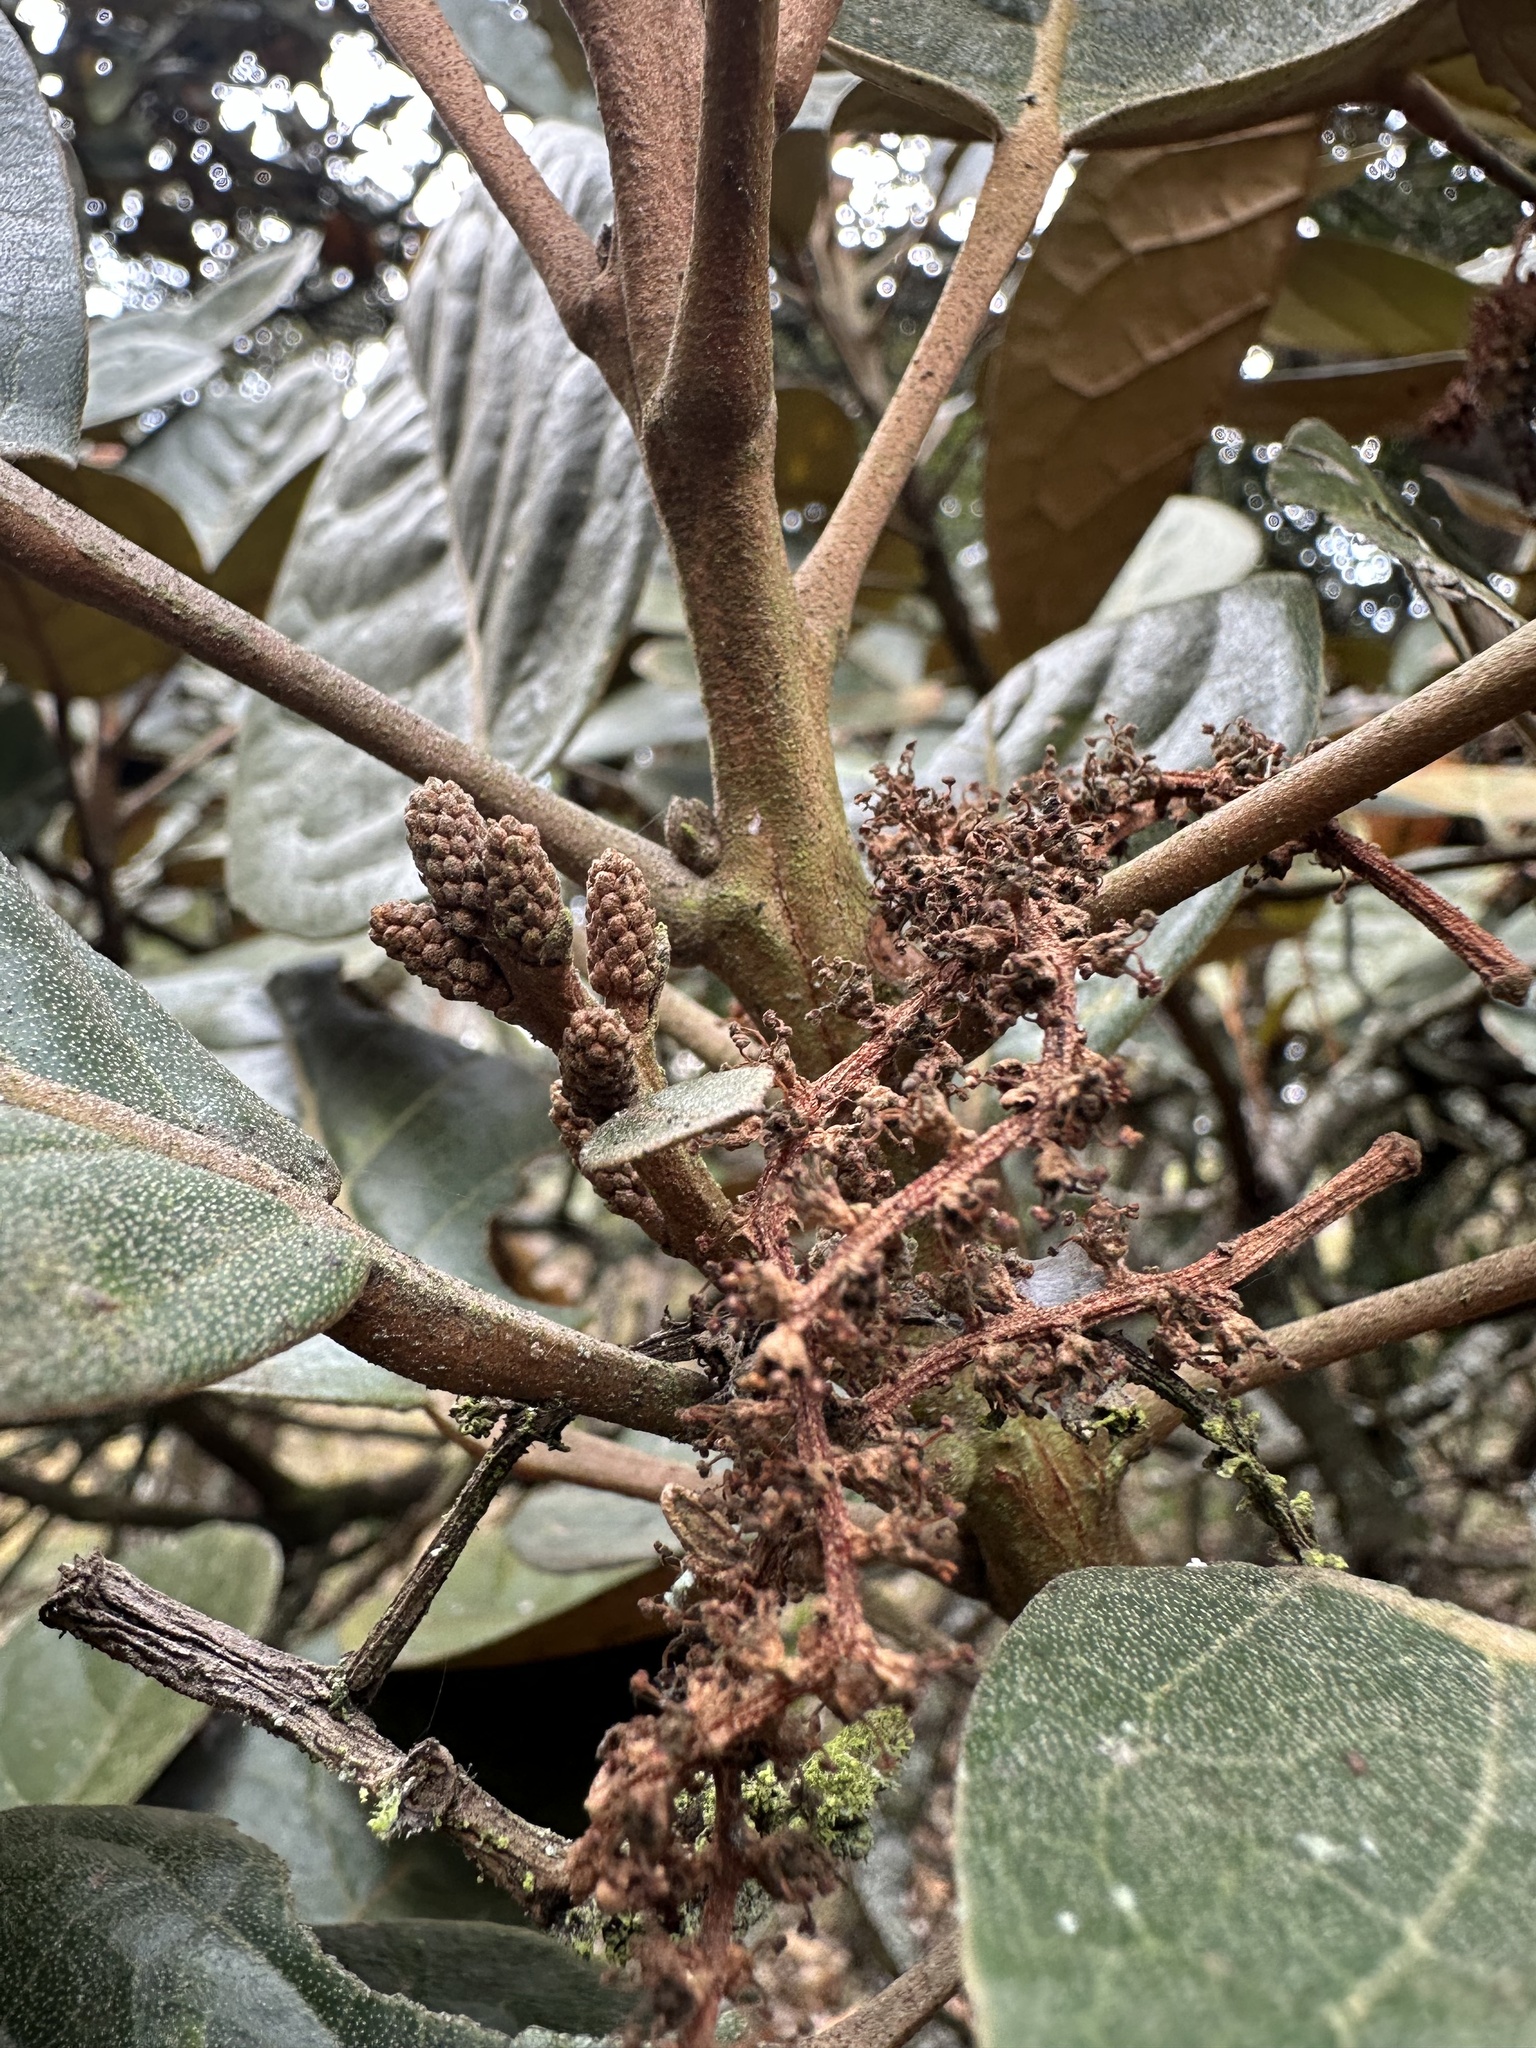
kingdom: Plantae
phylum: Tracheophyta
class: Magnoliopsida
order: Malpighiales
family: Phyllanthaceae
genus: Hieronyma
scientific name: Hieronyma rufa
